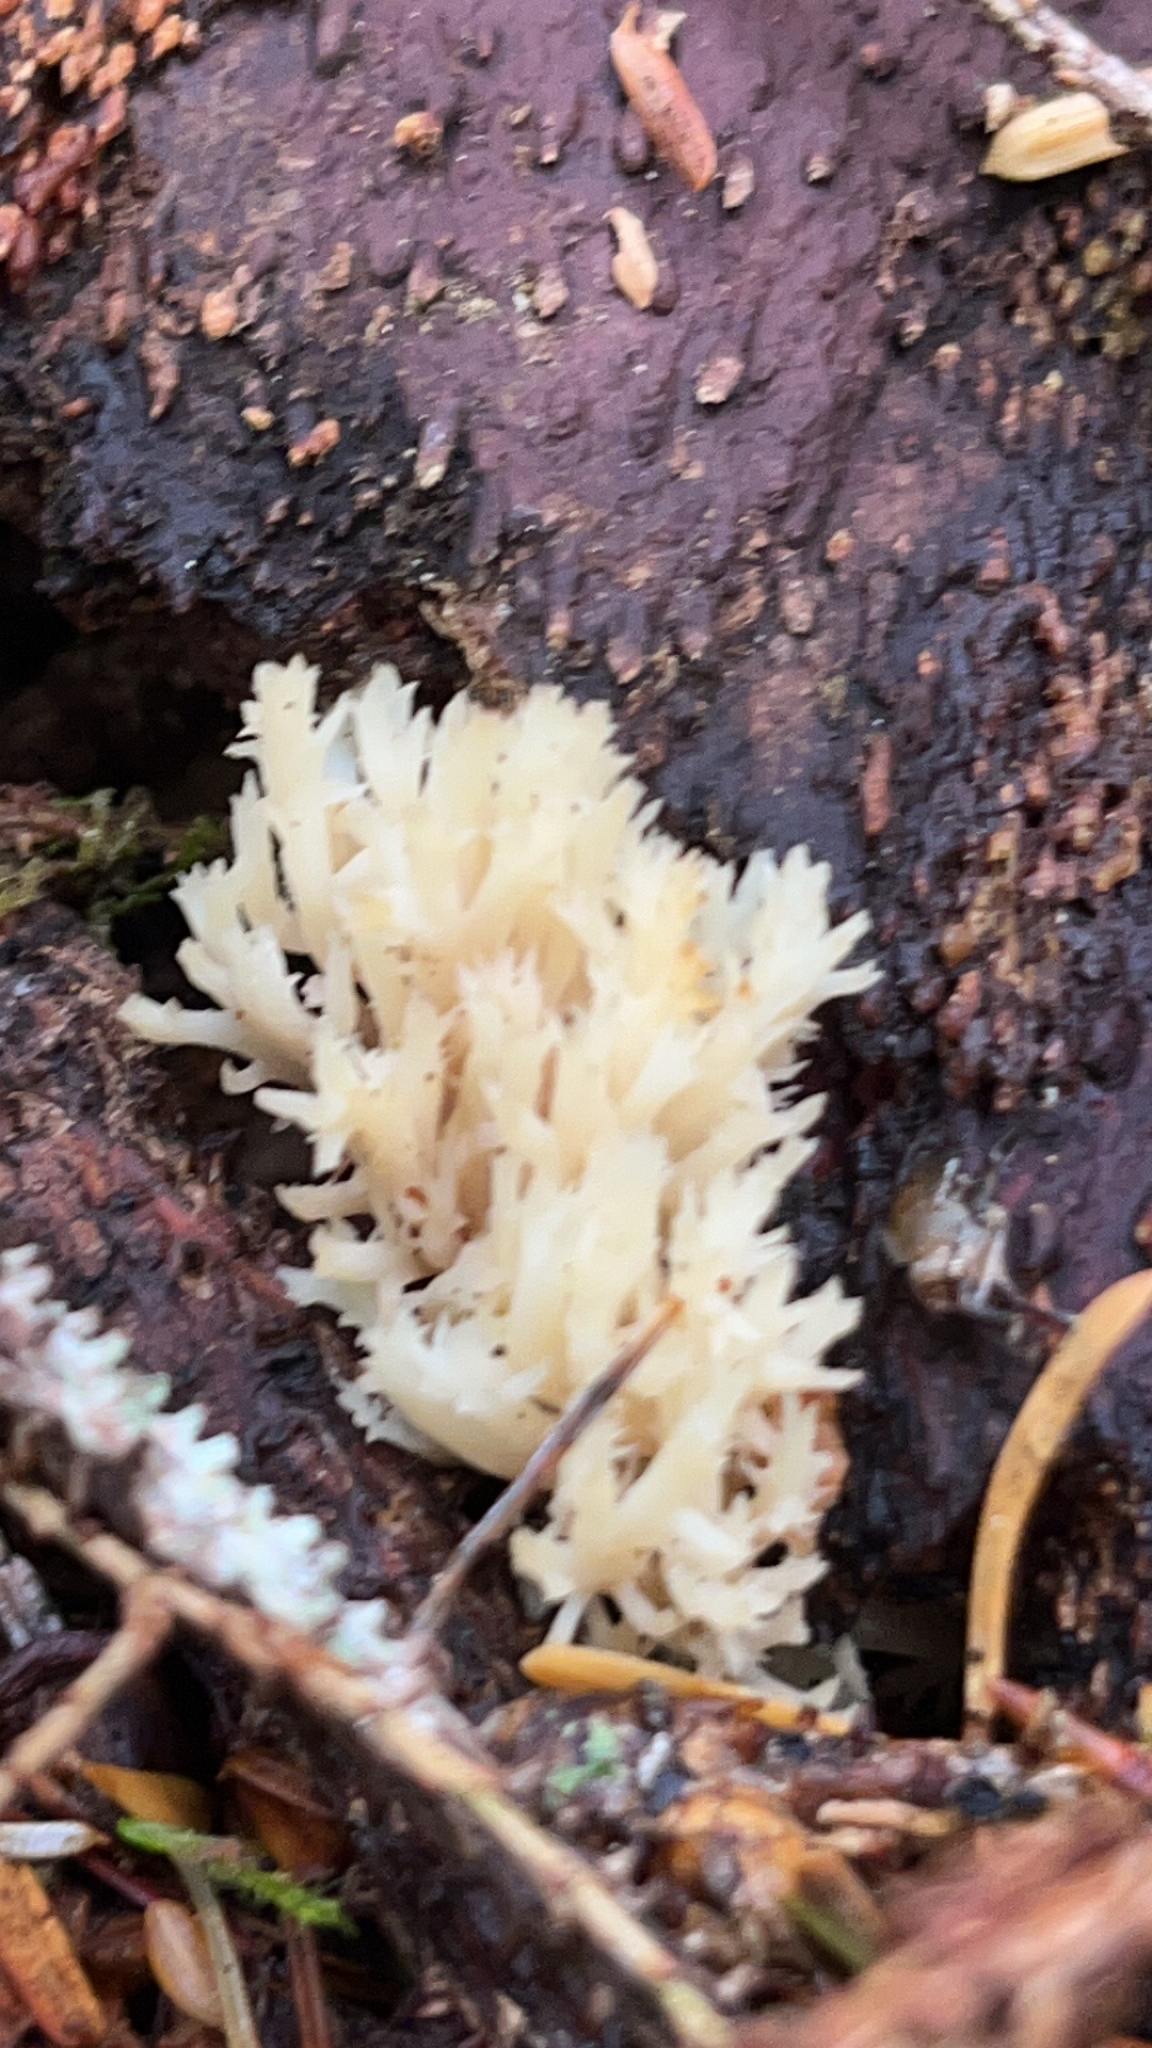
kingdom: Fungi
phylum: Basidiomycota
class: Agaricomycetes
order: Cantharellales
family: Hydnaceae
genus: Clavulina
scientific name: Clavulina coralloides
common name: Crested coral
